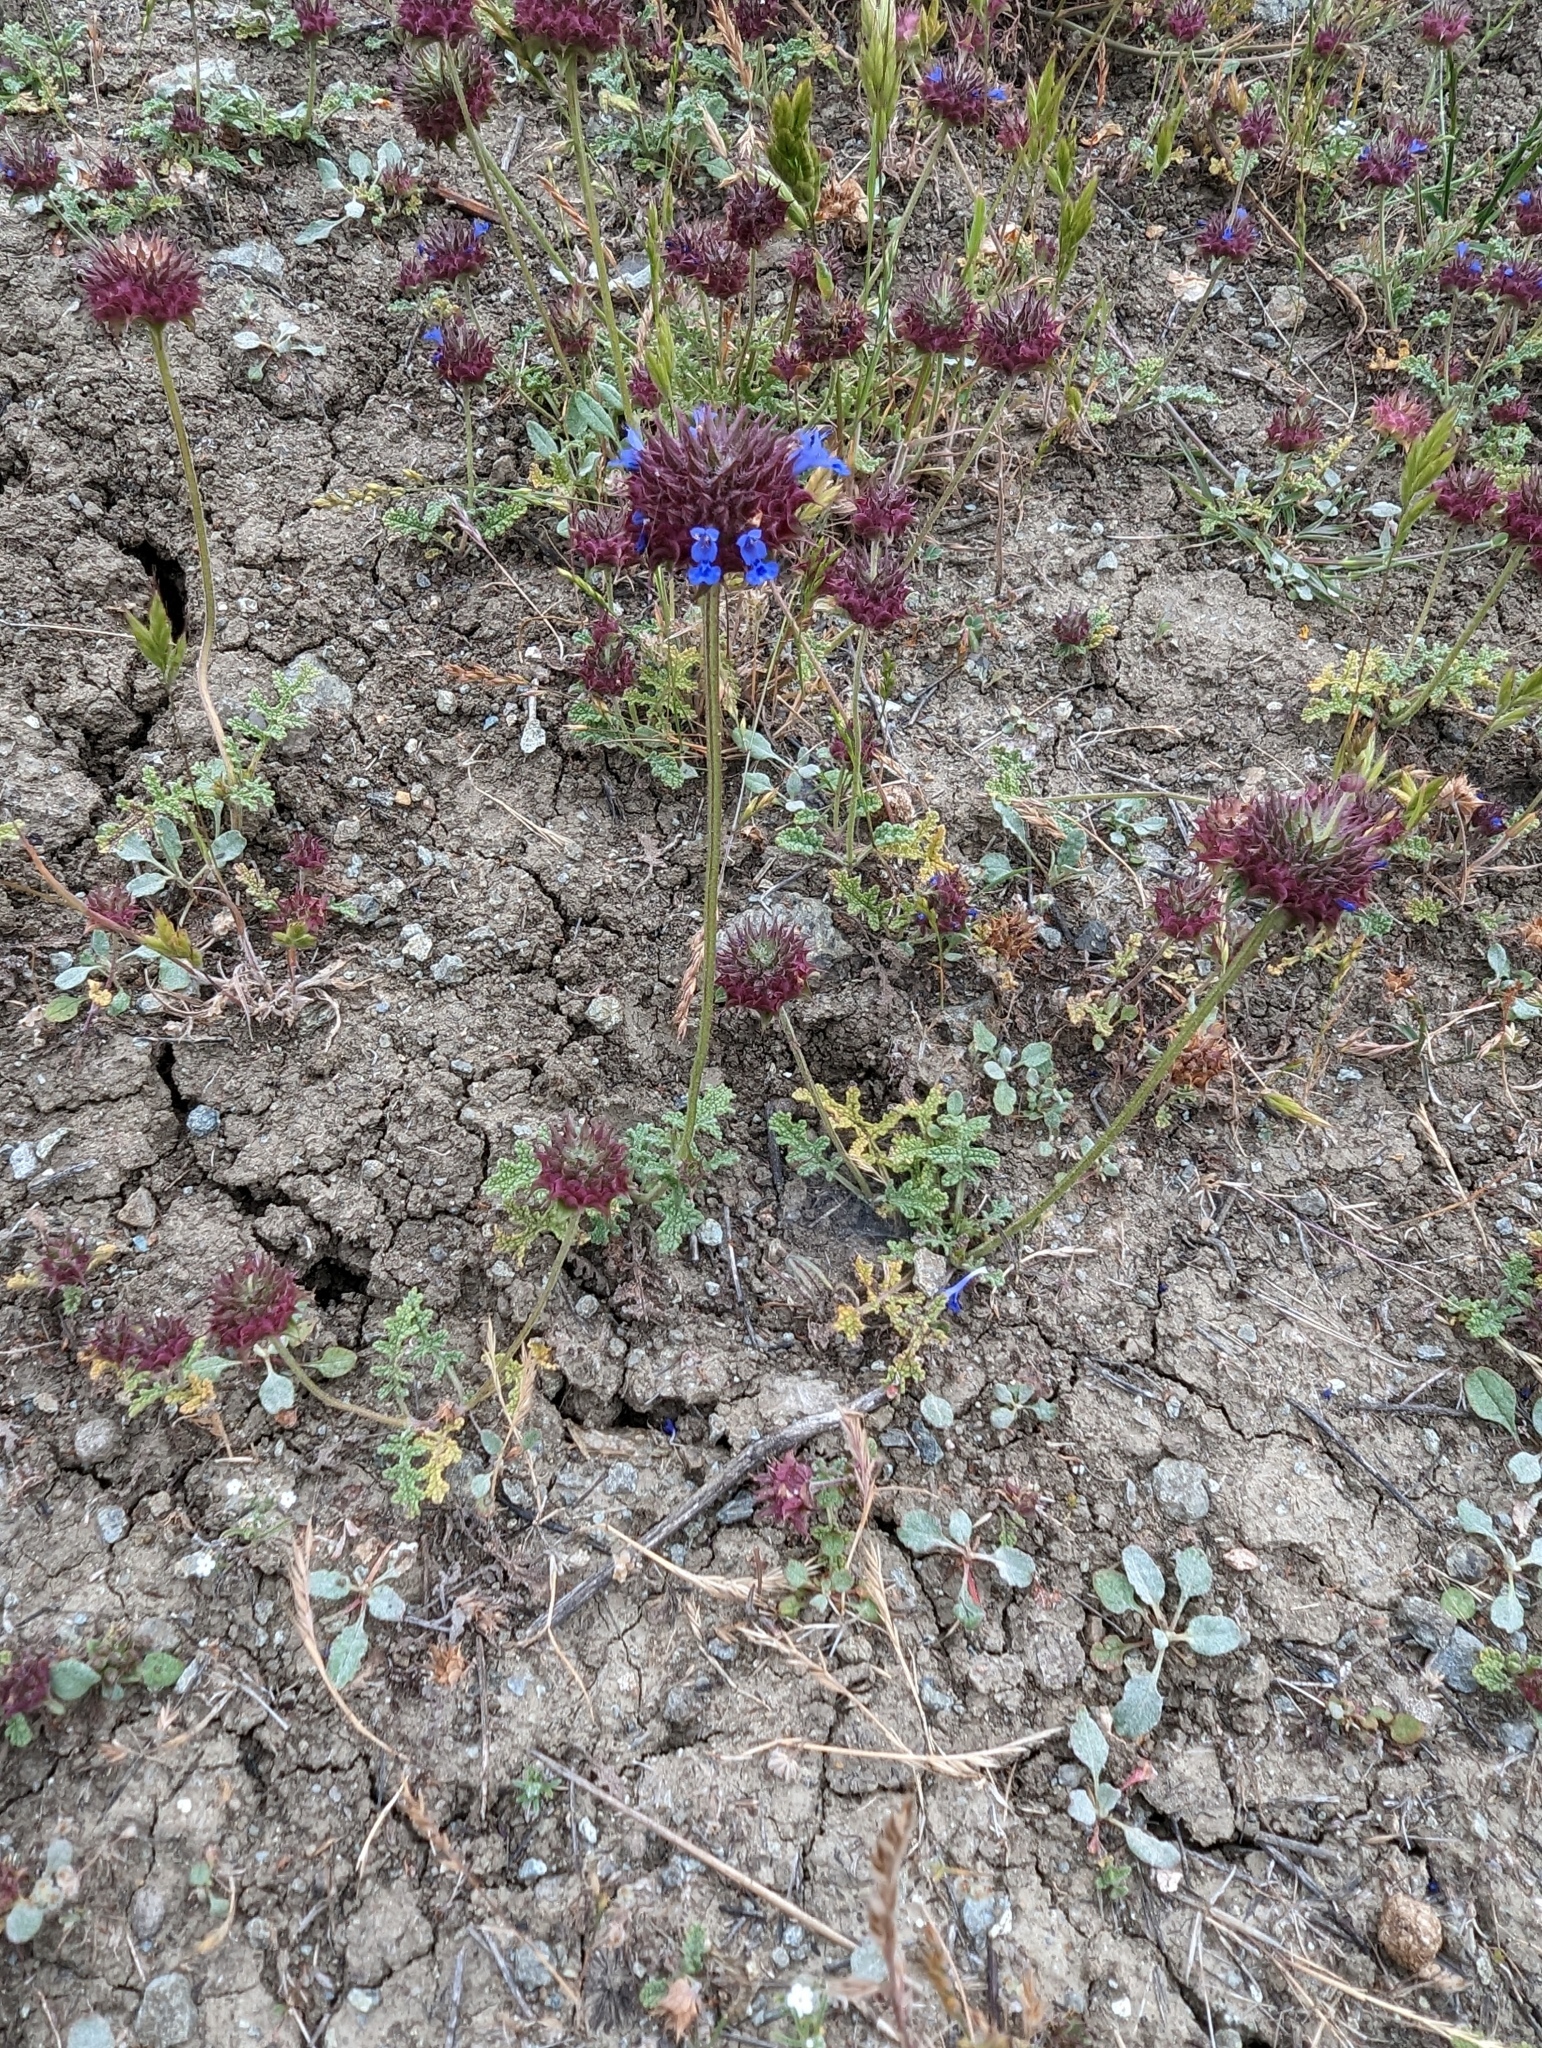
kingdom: Plantae
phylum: Tracheophyta
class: Magnoliopsida
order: Lamiales
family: Lamiaceae
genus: Salvia
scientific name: Salvia columbariae
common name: Chia
